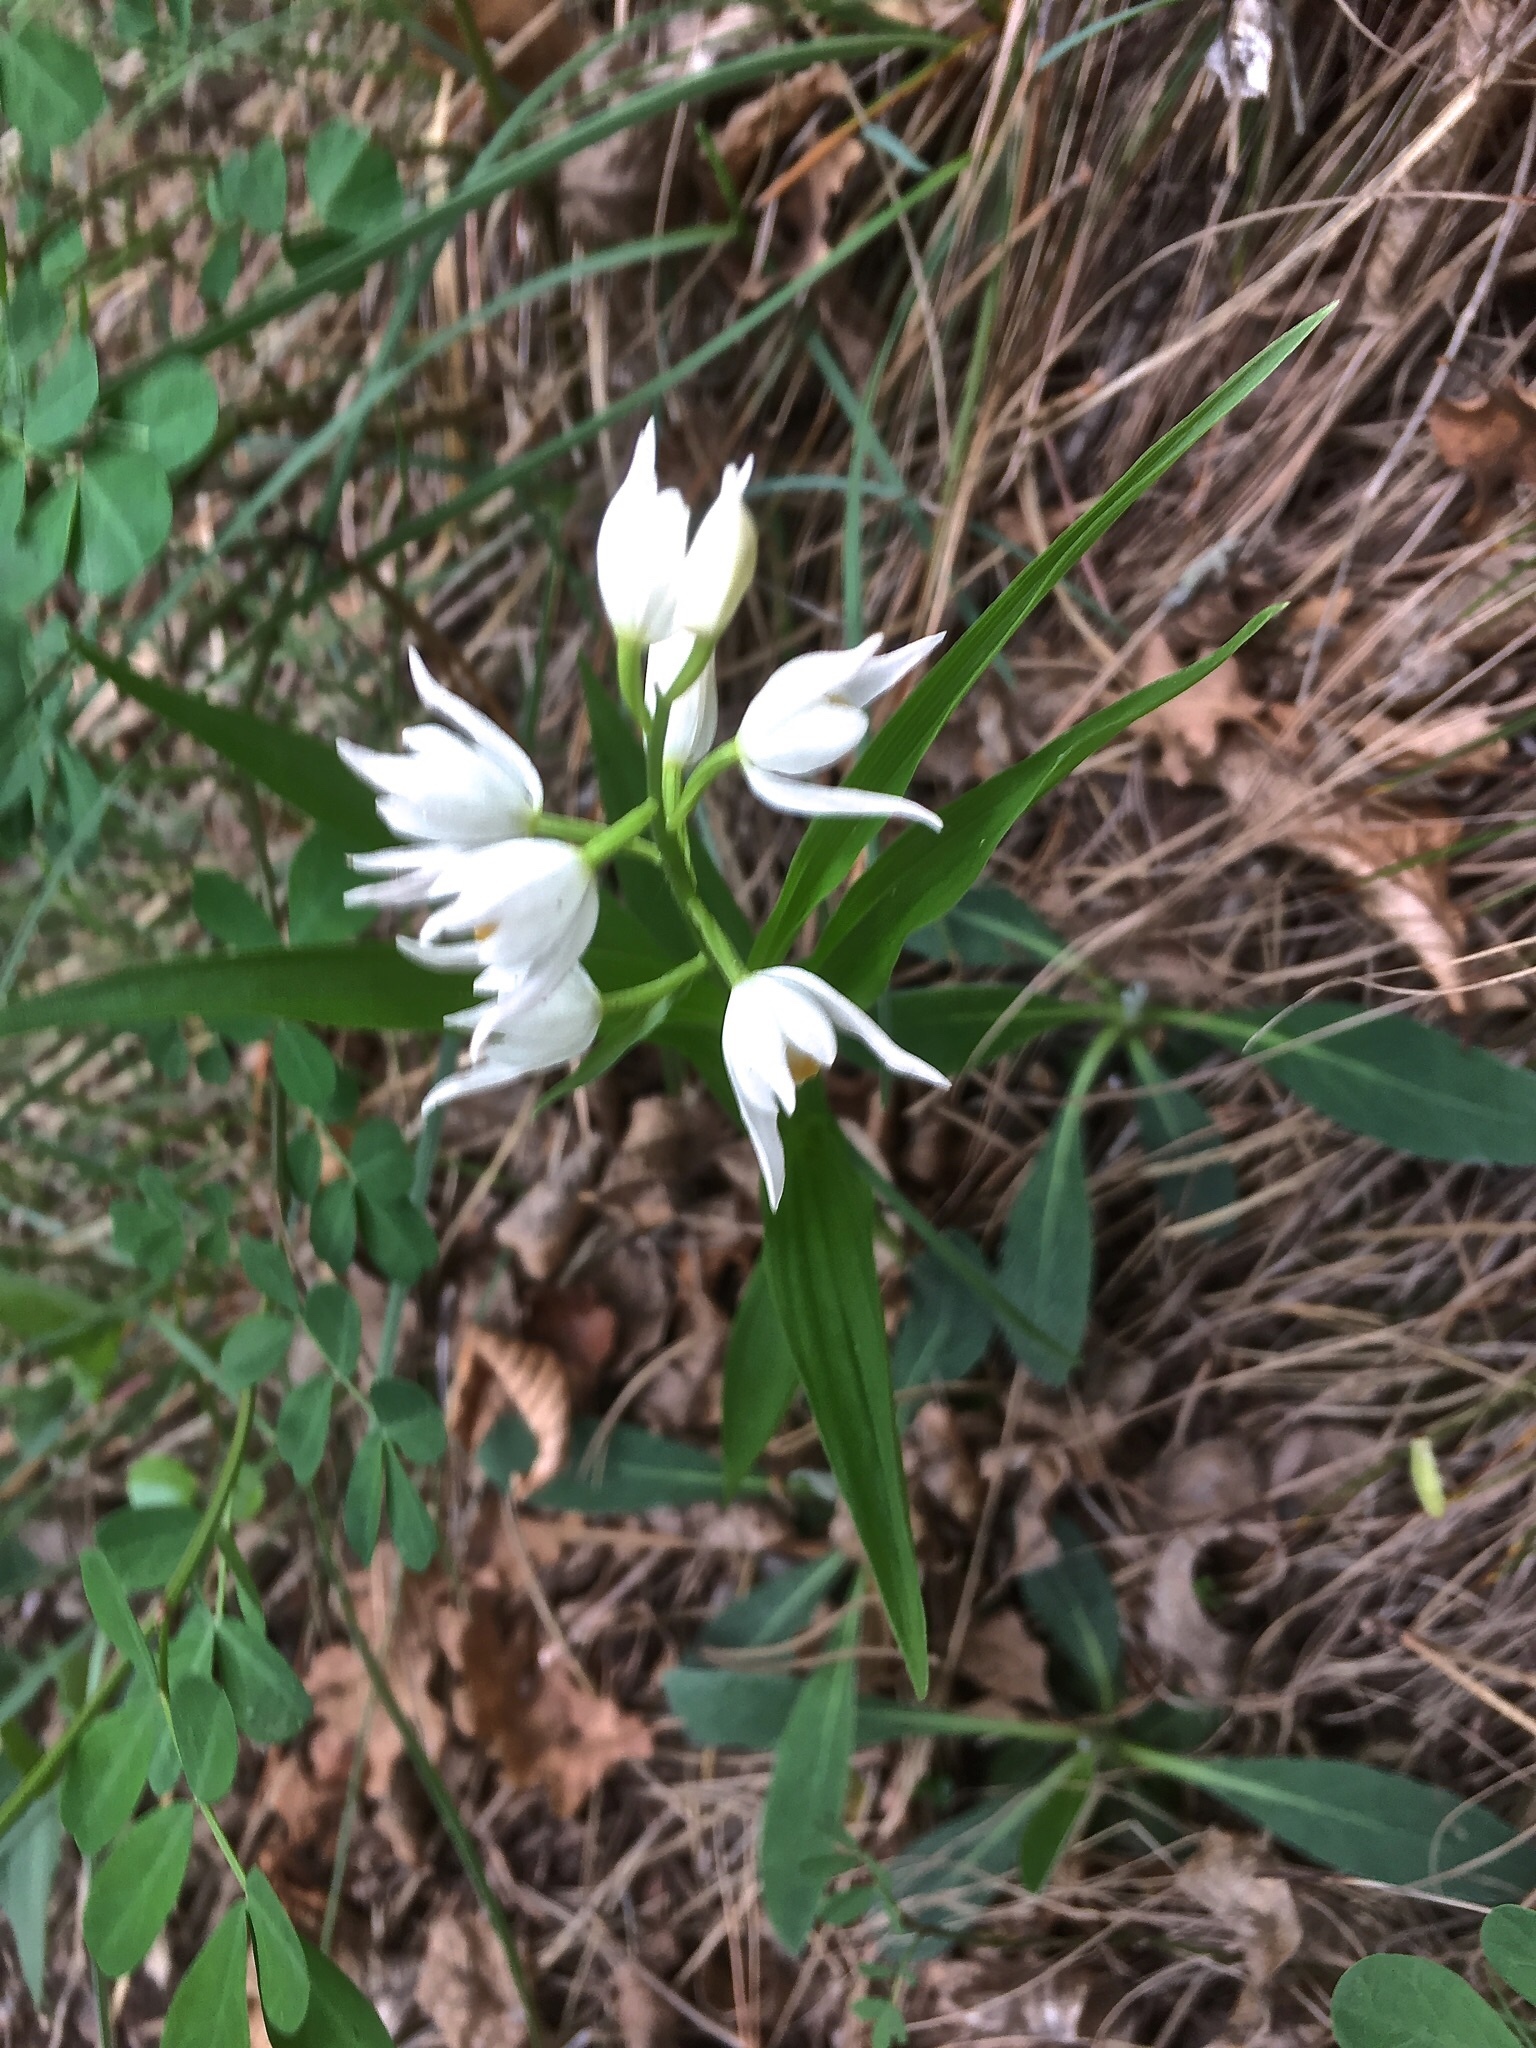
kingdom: Plantae
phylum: Tracheophyta
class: Liliopsida
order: Asparagales
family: Orchidaceae
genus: Cephalanthera
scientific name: Cephalanthera longifolia
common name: Narrow-leaved helleborine
